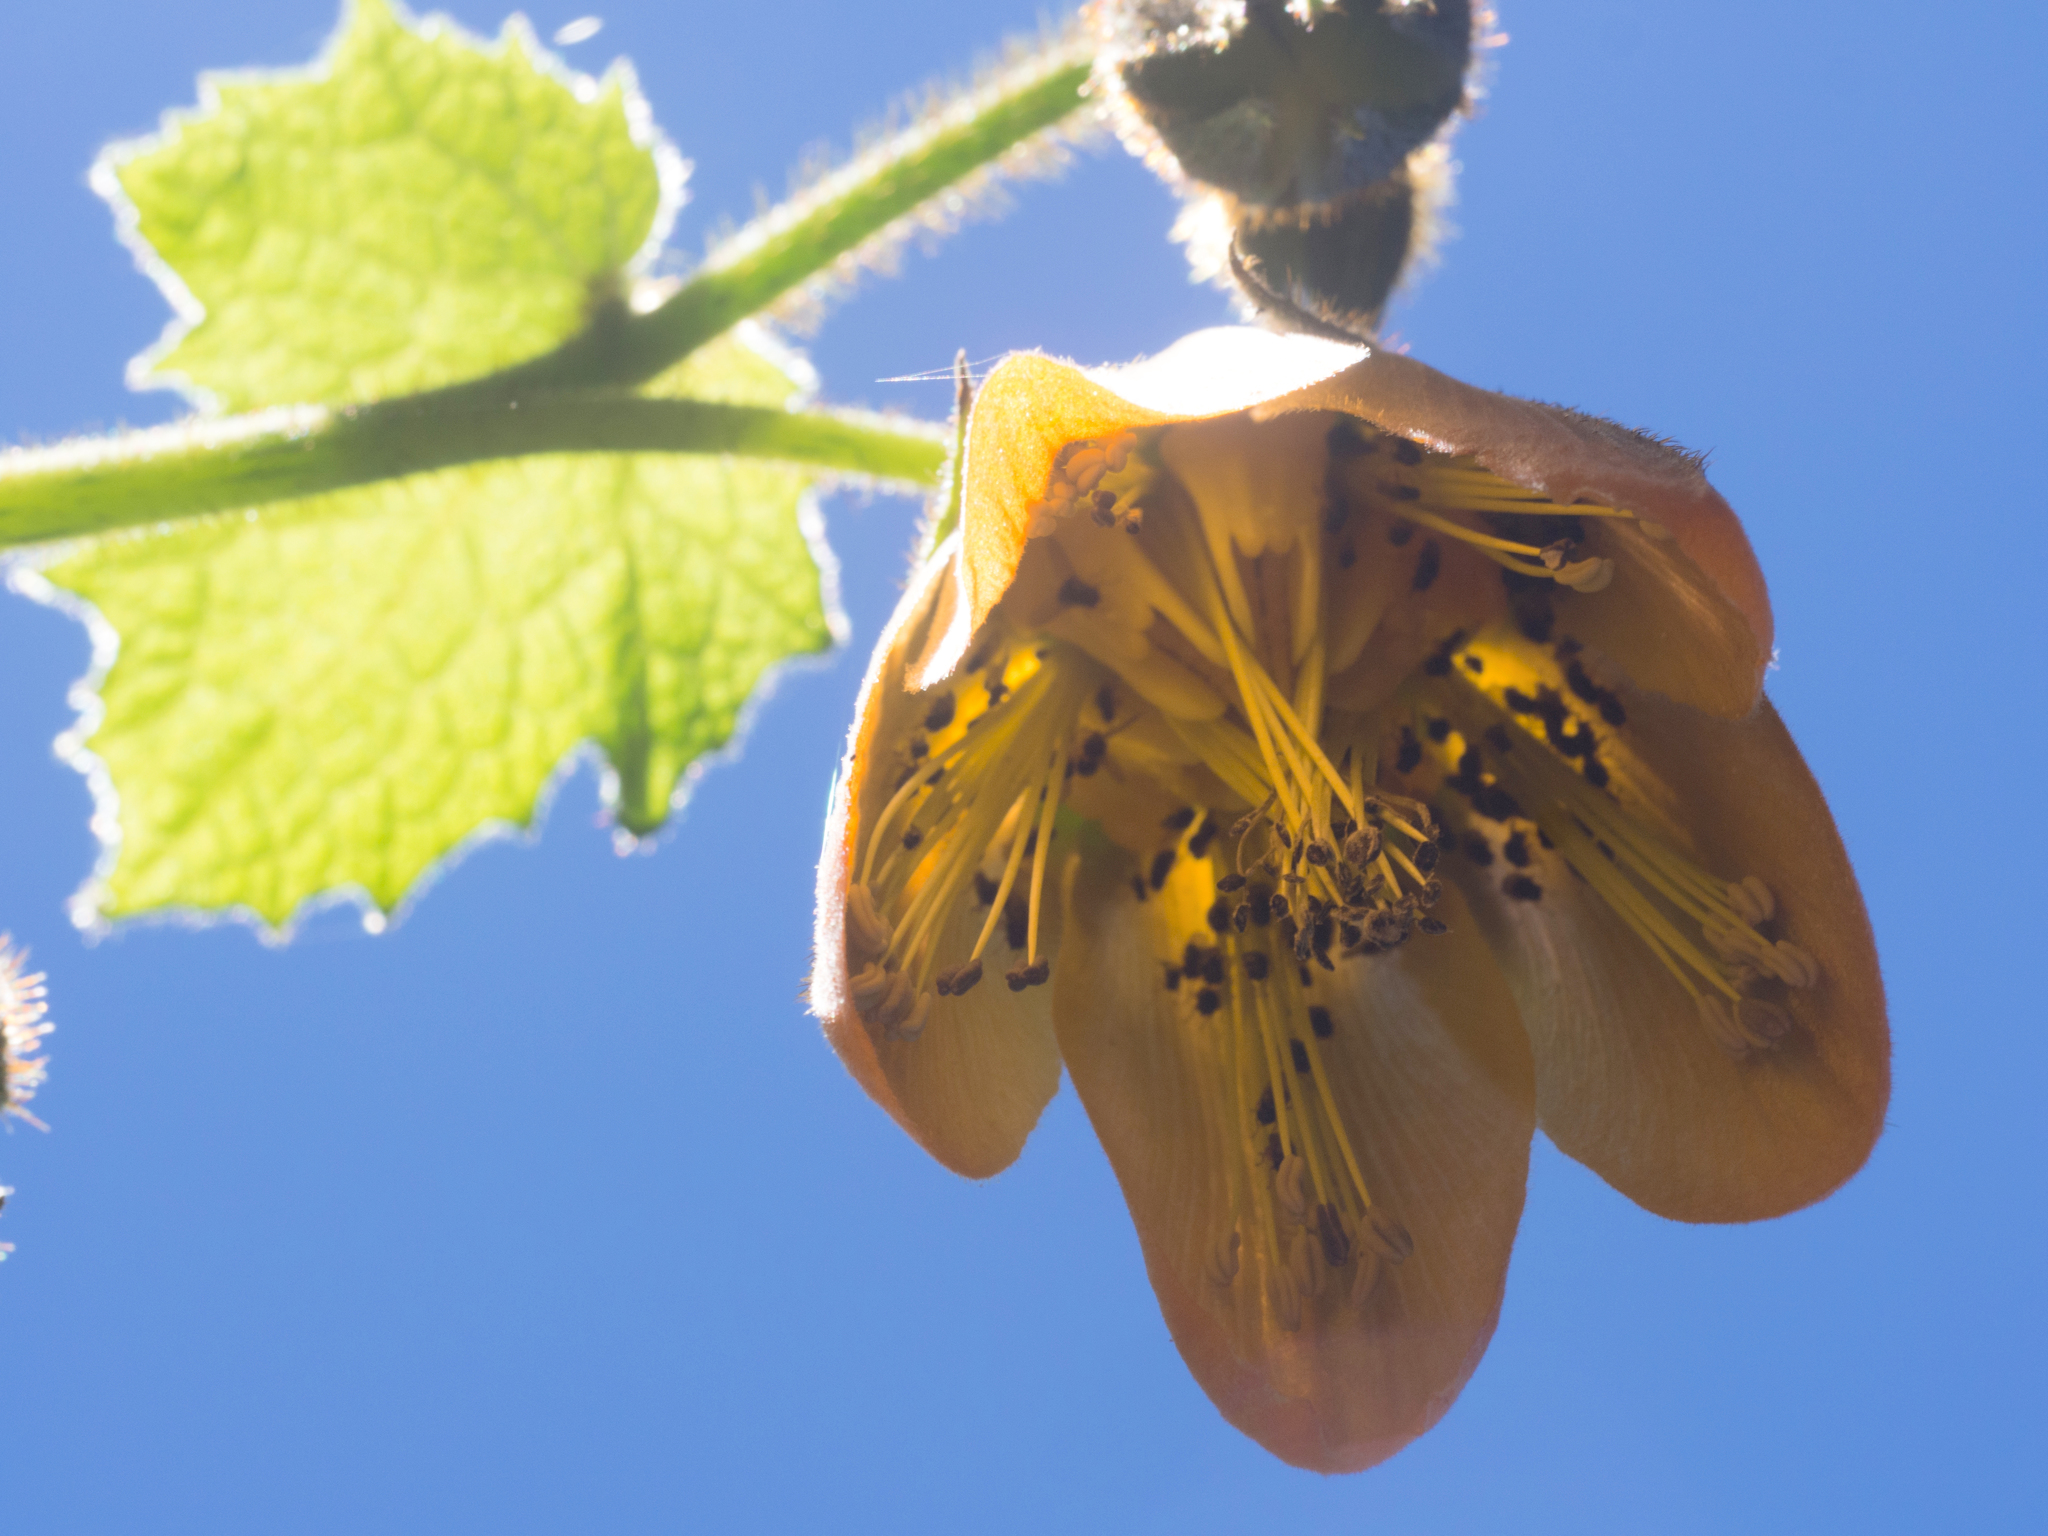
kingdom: Plantae
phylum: Tracheophyta
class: Magnoliopsida
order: Cornales
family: Loasaceae
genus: Nasa
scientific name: Nasa speciosa
